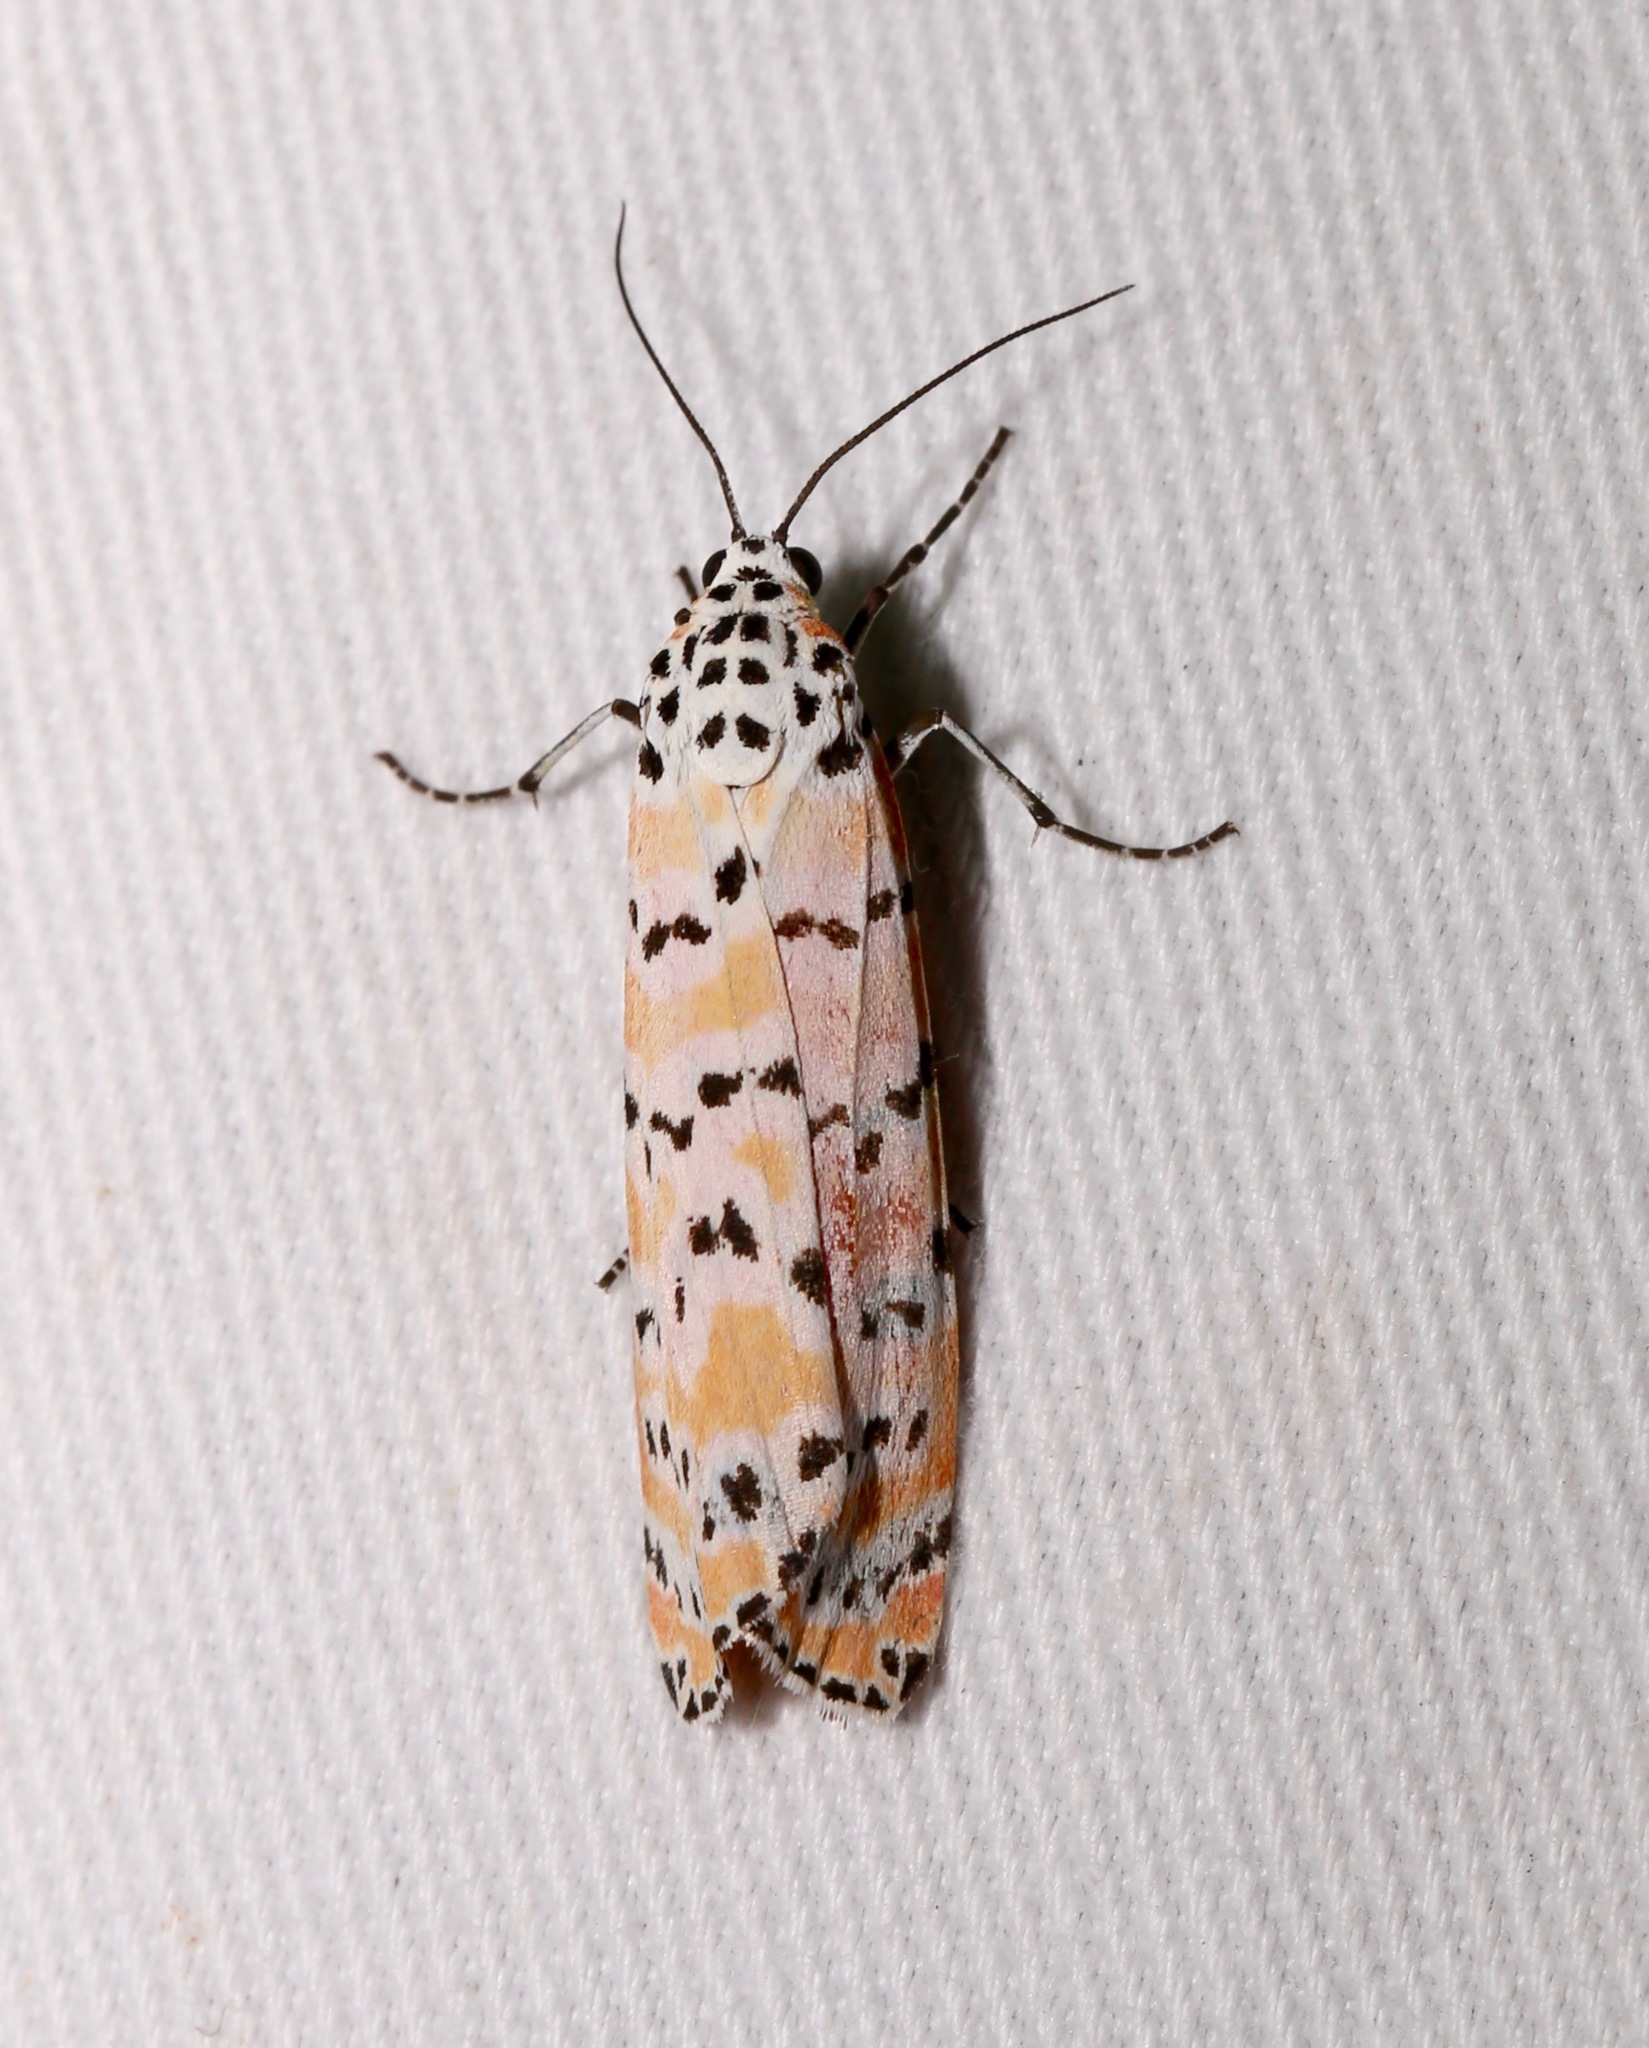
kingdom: Animalia
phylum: Arthropoda
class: Insecta
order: Lepidoptera
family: Erebidae
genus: Utetheisa
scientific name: Utetheisa ornatrix
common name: Beautiful utetheisa
